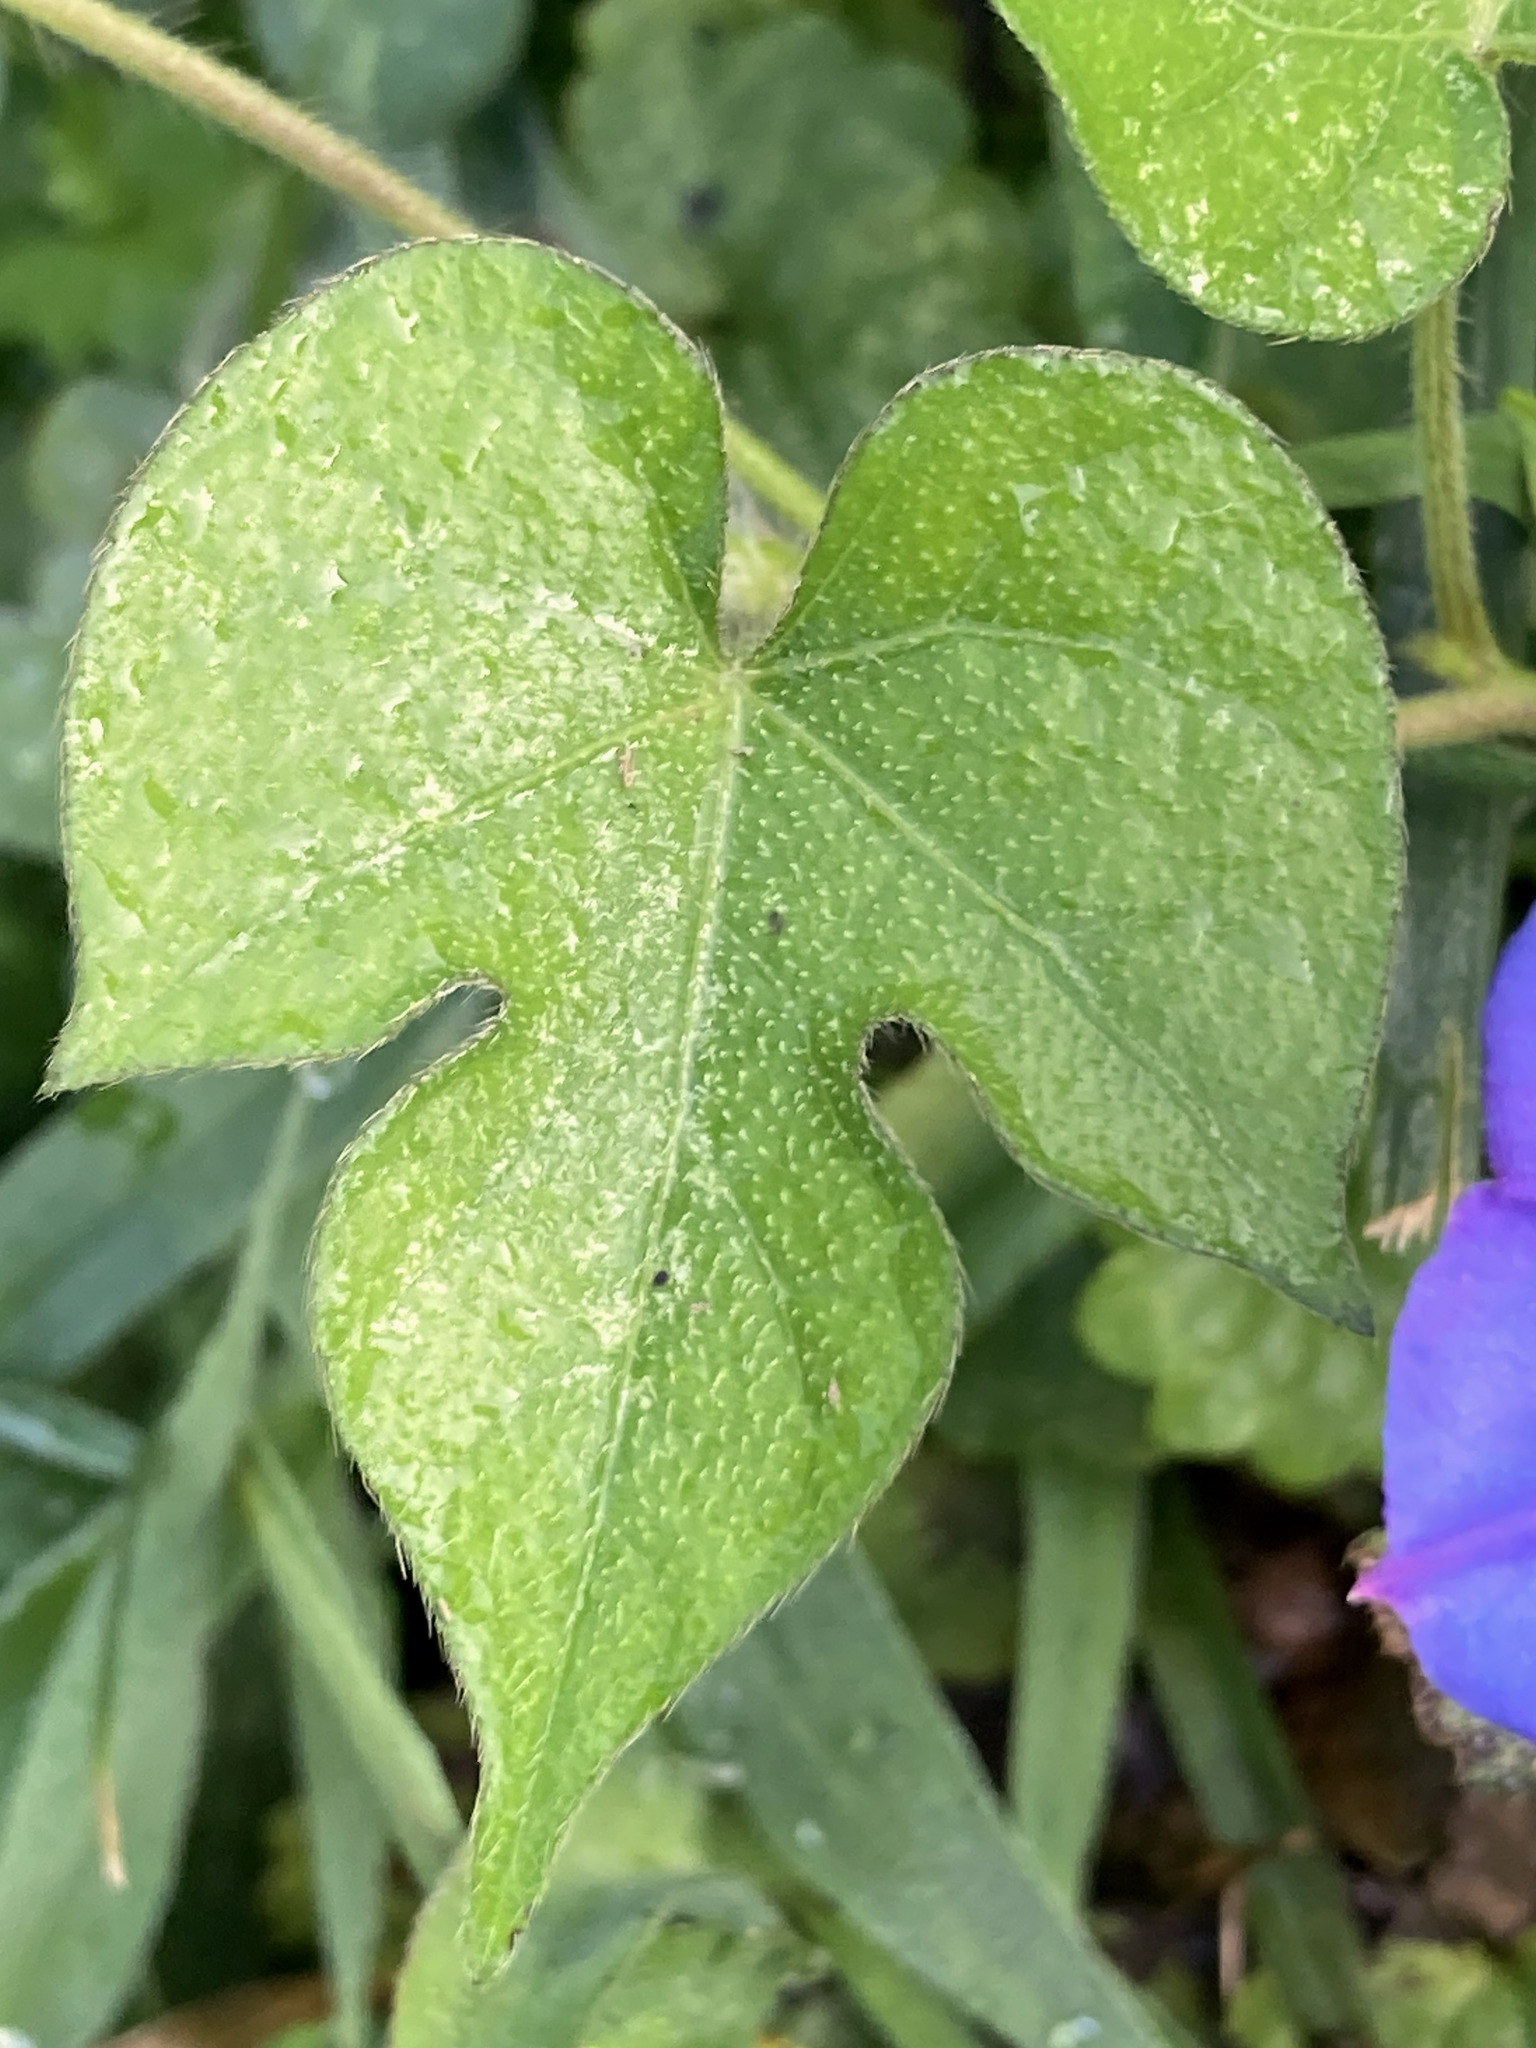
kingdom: Plantae
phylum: Tracheophyta
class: Magnoliopsida
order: Solanales
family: Convolvulaceae
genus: Ipomoea
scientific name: Ipomoea hederacea
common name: Ivy-leaved morning-glory
